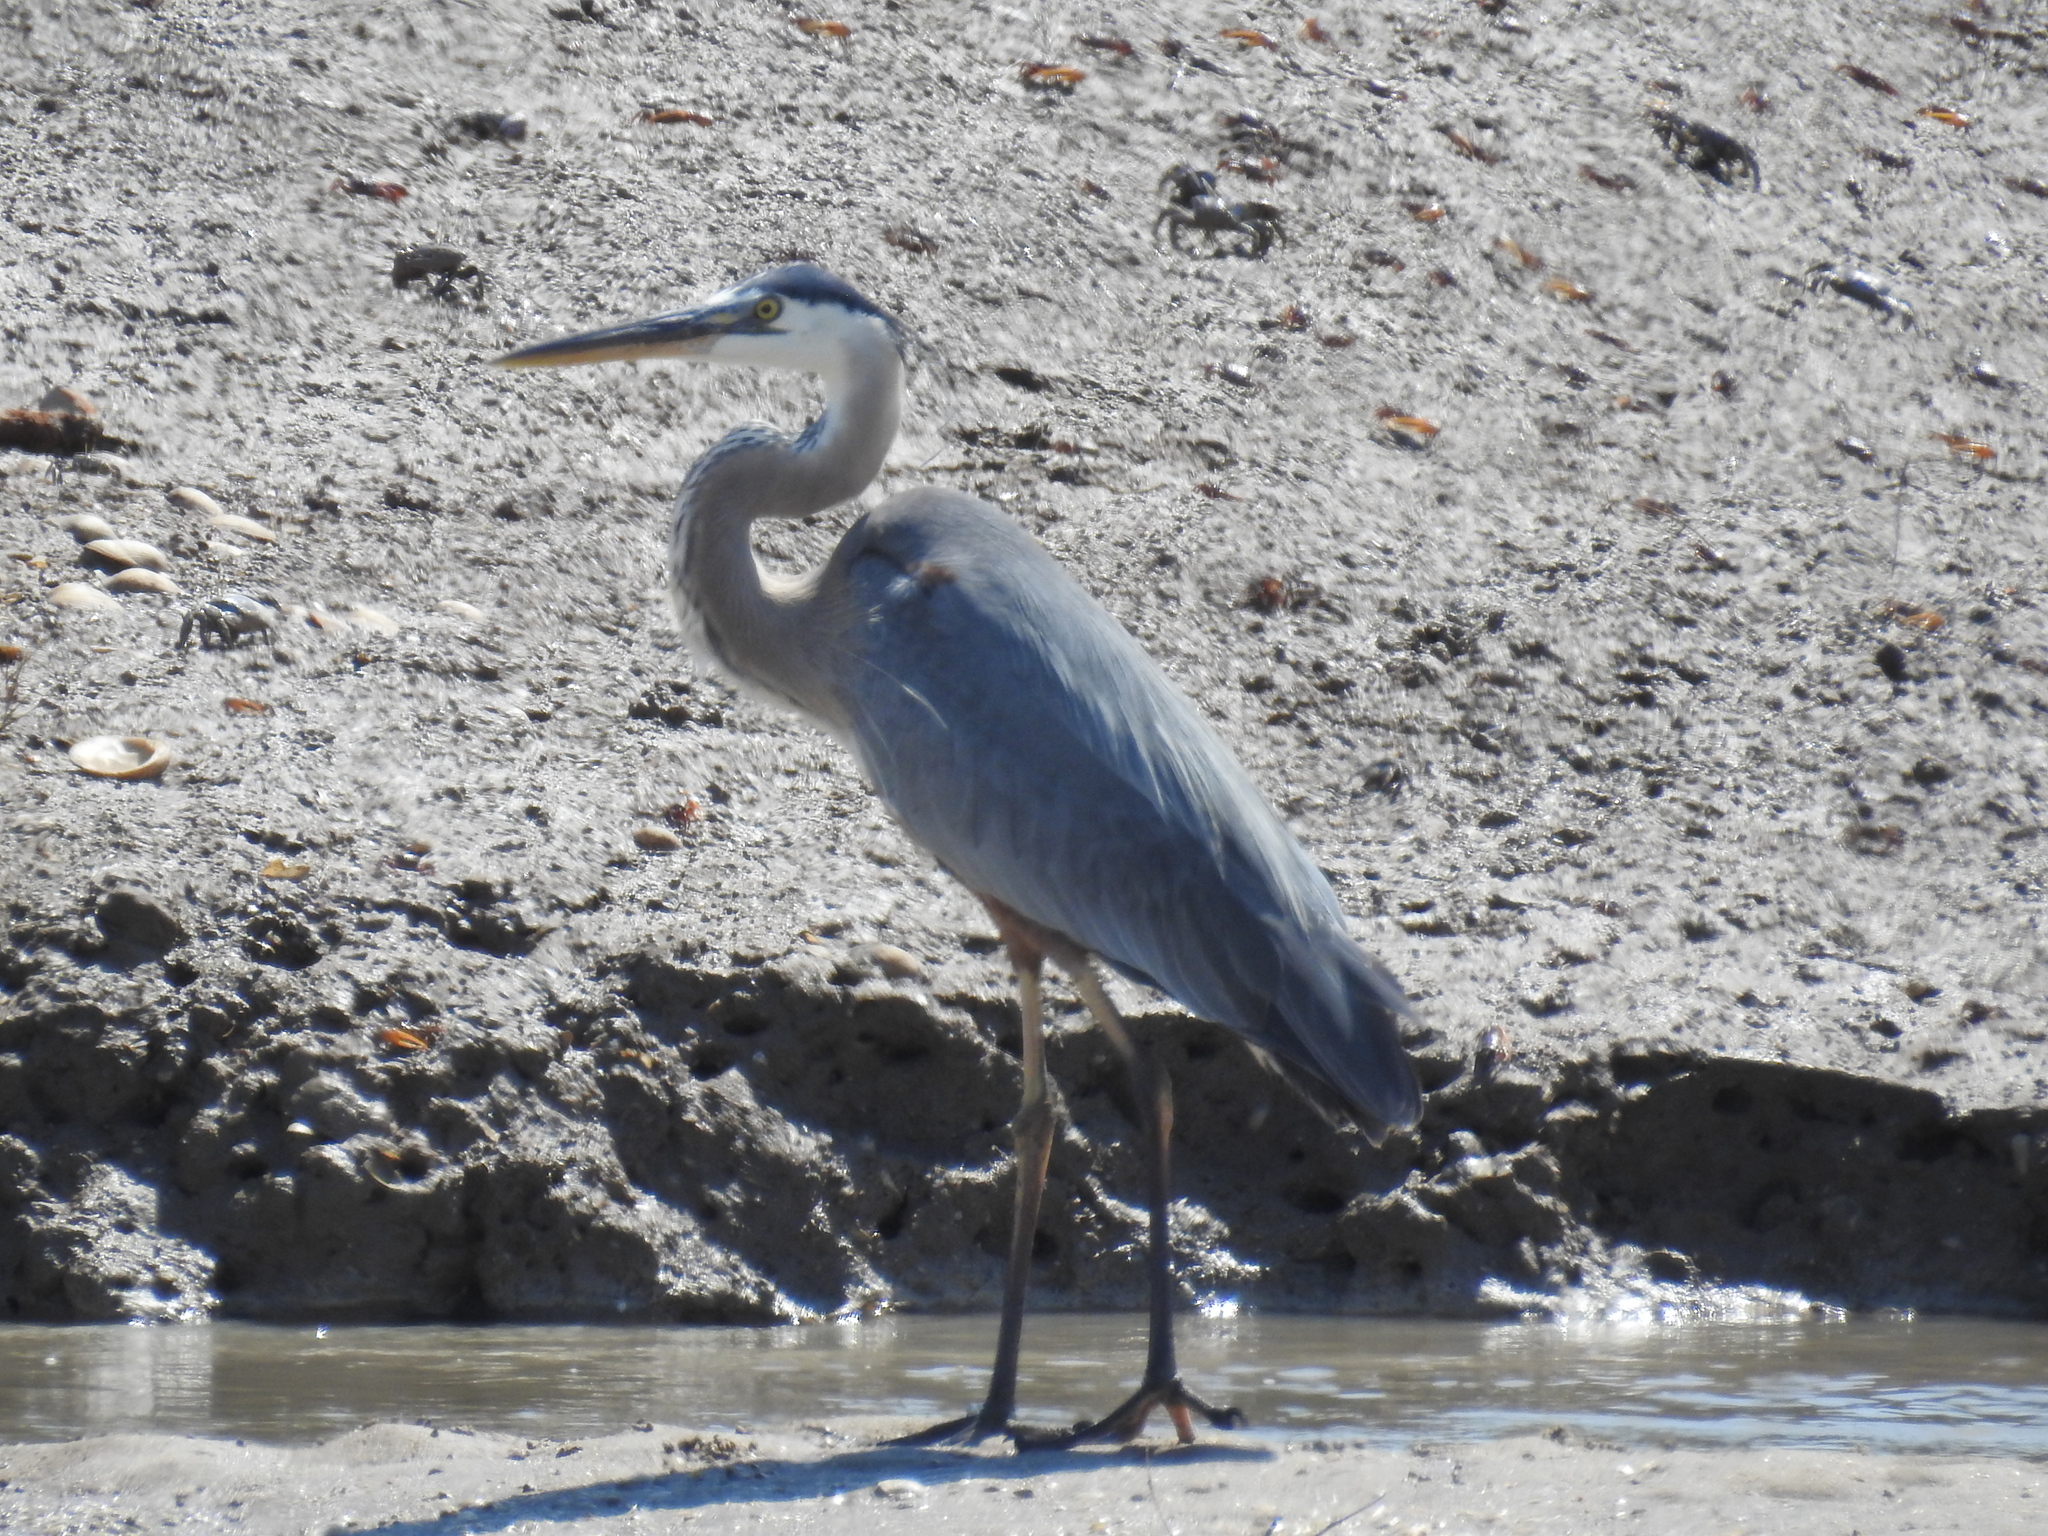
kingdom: Animalia
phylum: Chordata
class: Aves
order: Pelecaniformes
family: Ardeidae
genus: Ardea
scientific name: Ardea herodias
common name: Great blue heron
